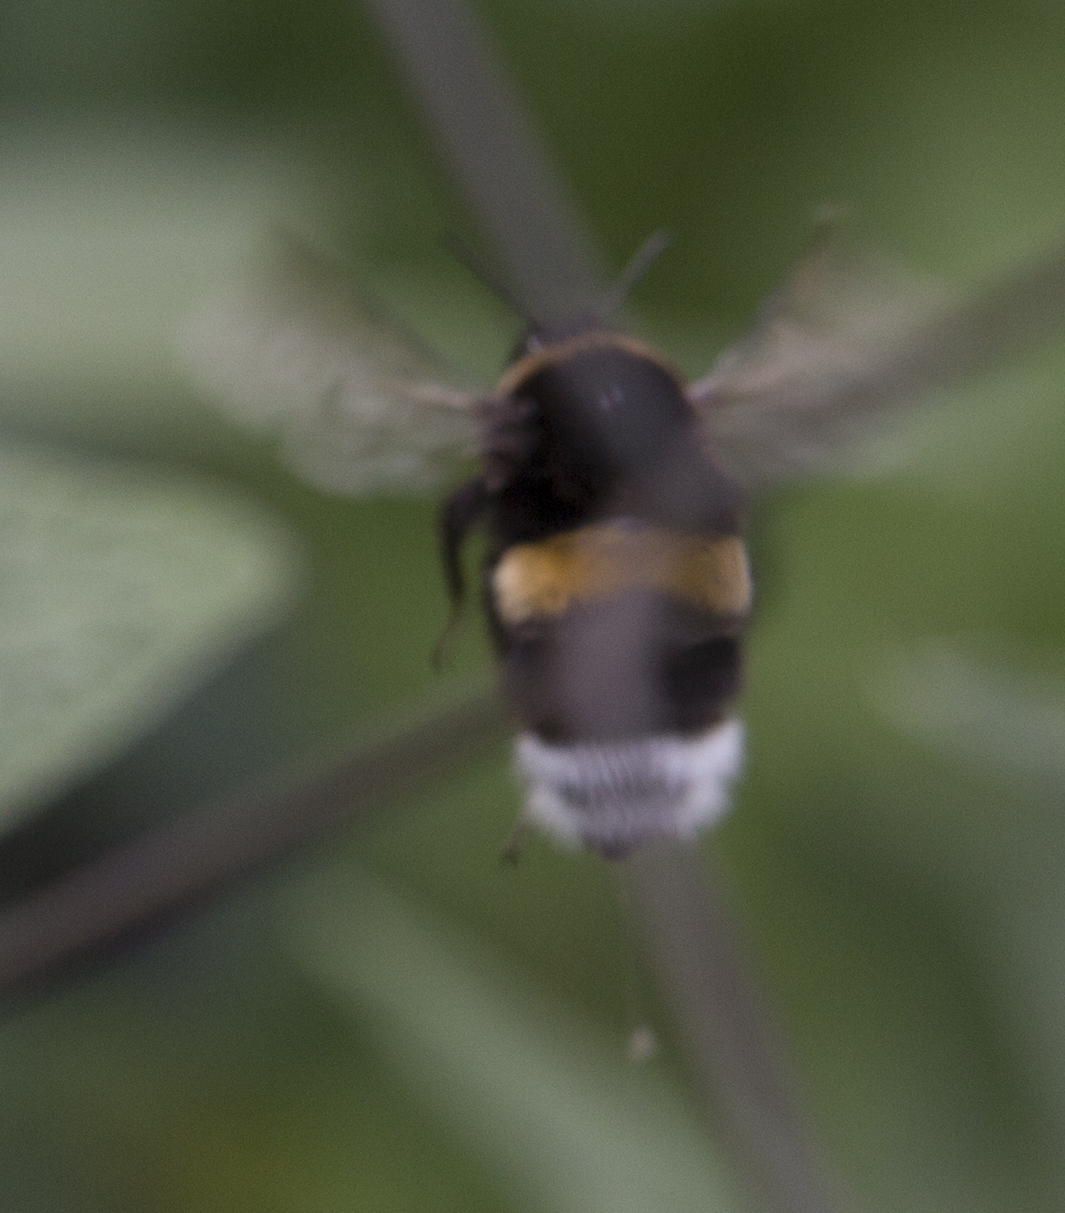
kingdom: Animalia
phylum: Arthropoda
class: Insecta
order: Hymenoptera
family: Apidae
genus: Bombus
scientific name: Bombus
